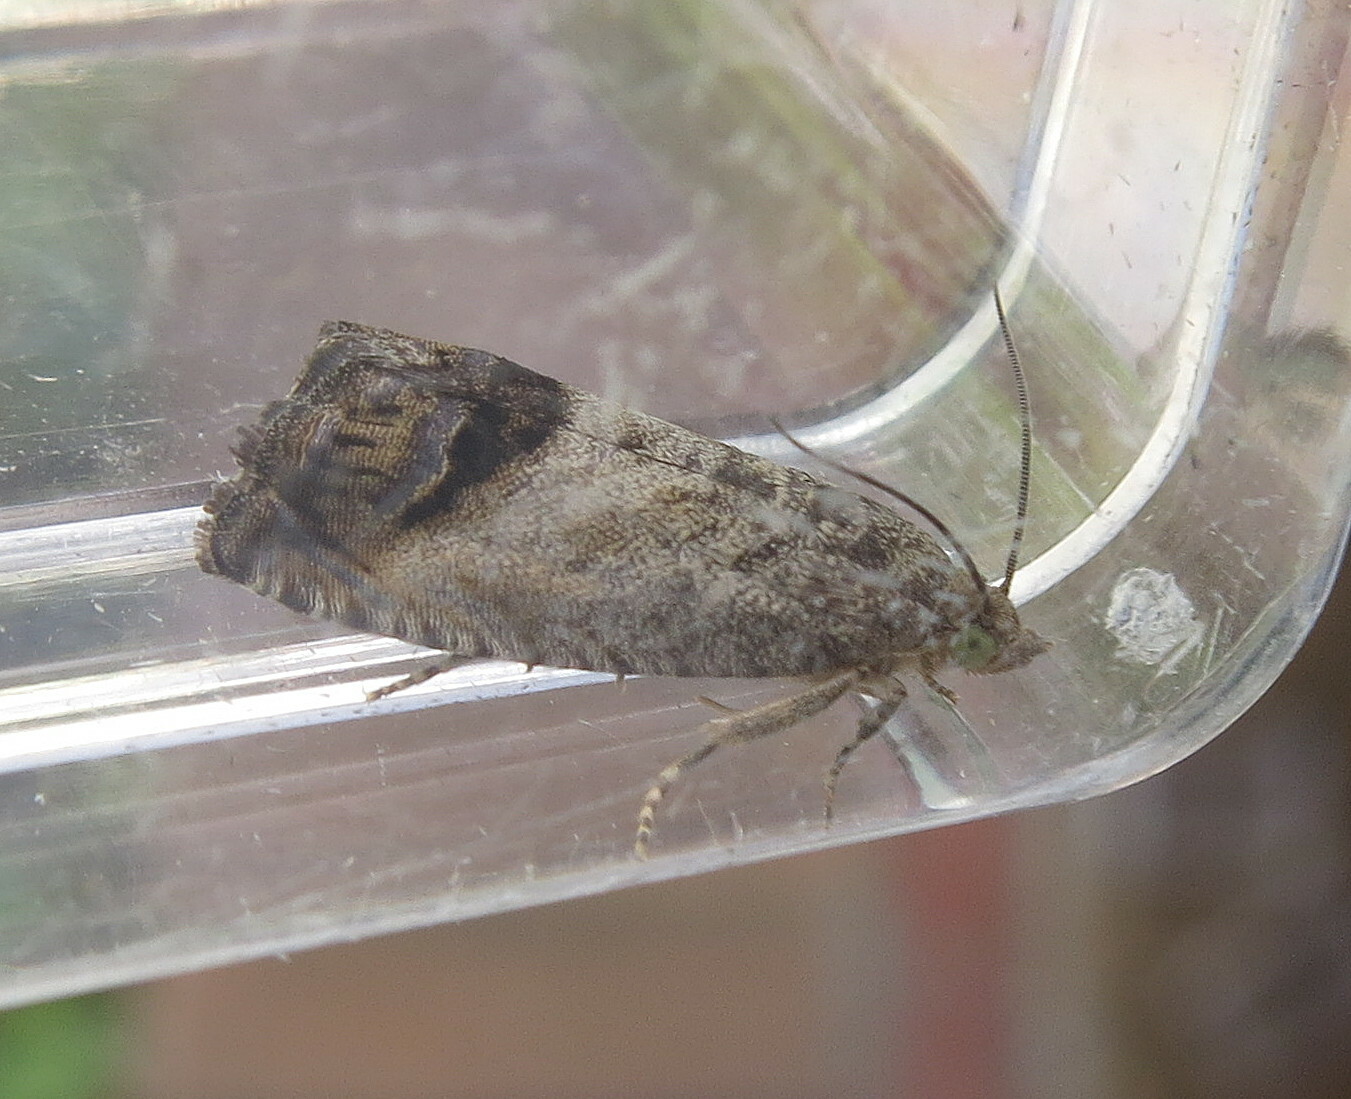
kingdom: Animalia
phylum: Arthropoda
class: Insecta
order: Lepidoptera
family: Tortricidae
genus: Cydia
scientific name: Cydia splendana
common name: De: kastanienwickler, eichenwickler es: oruga de la castaña fr: carpocapse des châtaignes it: cidia o tortrice tardiva delle castagne pt: bichado das castanhas gb: acorn moth, chestnut fruit tortrix
